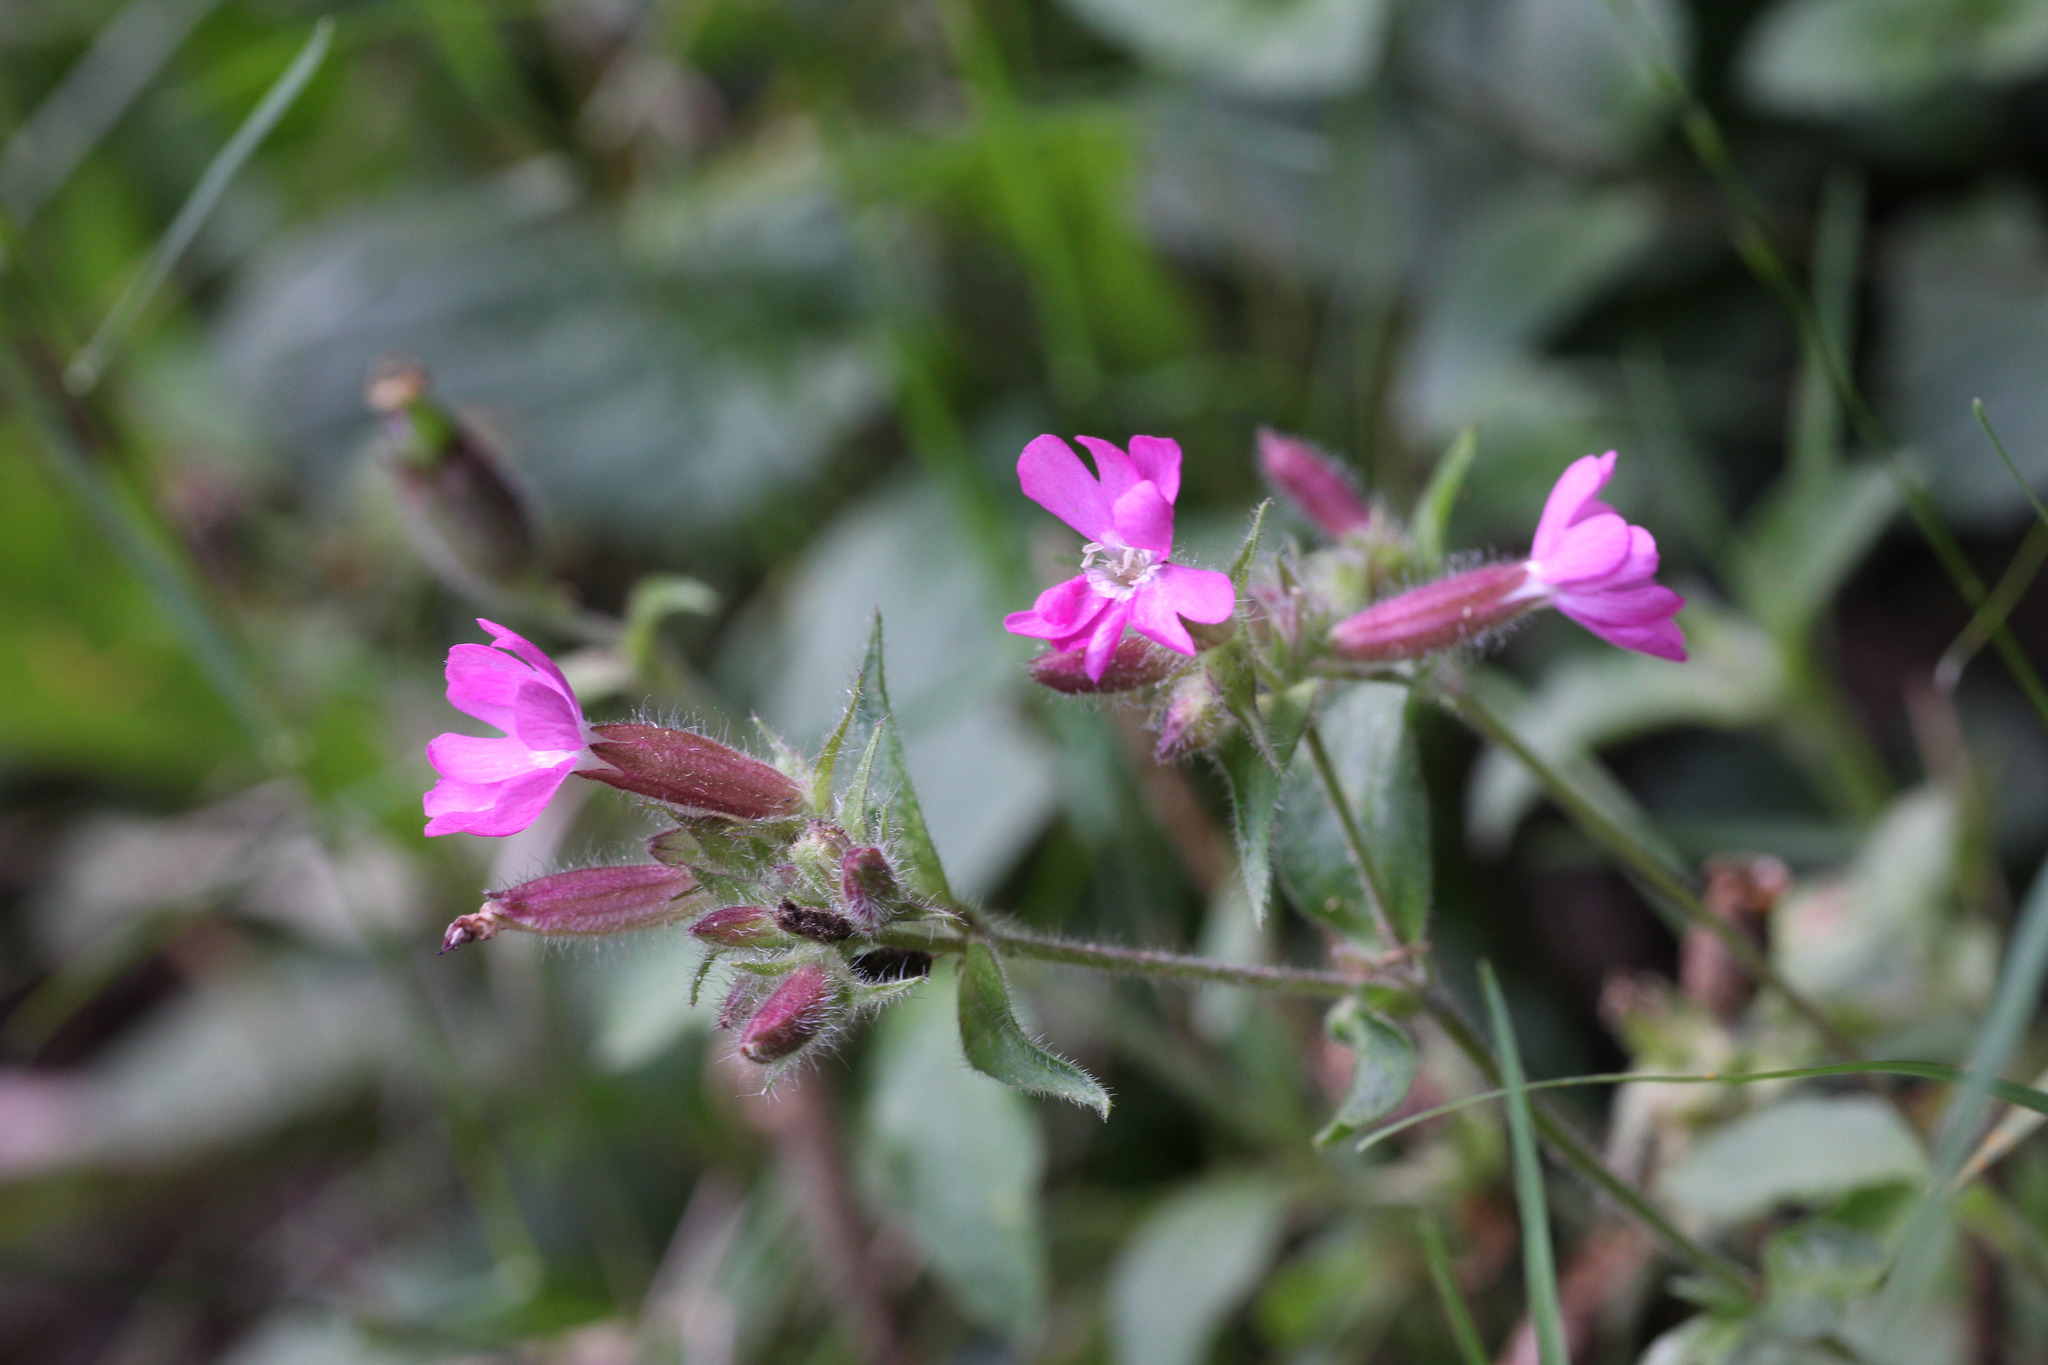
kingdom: Plantae
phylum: Tracheophyta
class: Magnoliopsida
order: Caryophyllales
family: Caryophyllaceae
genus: Silene
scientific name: Silene dioica
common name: Red campion
